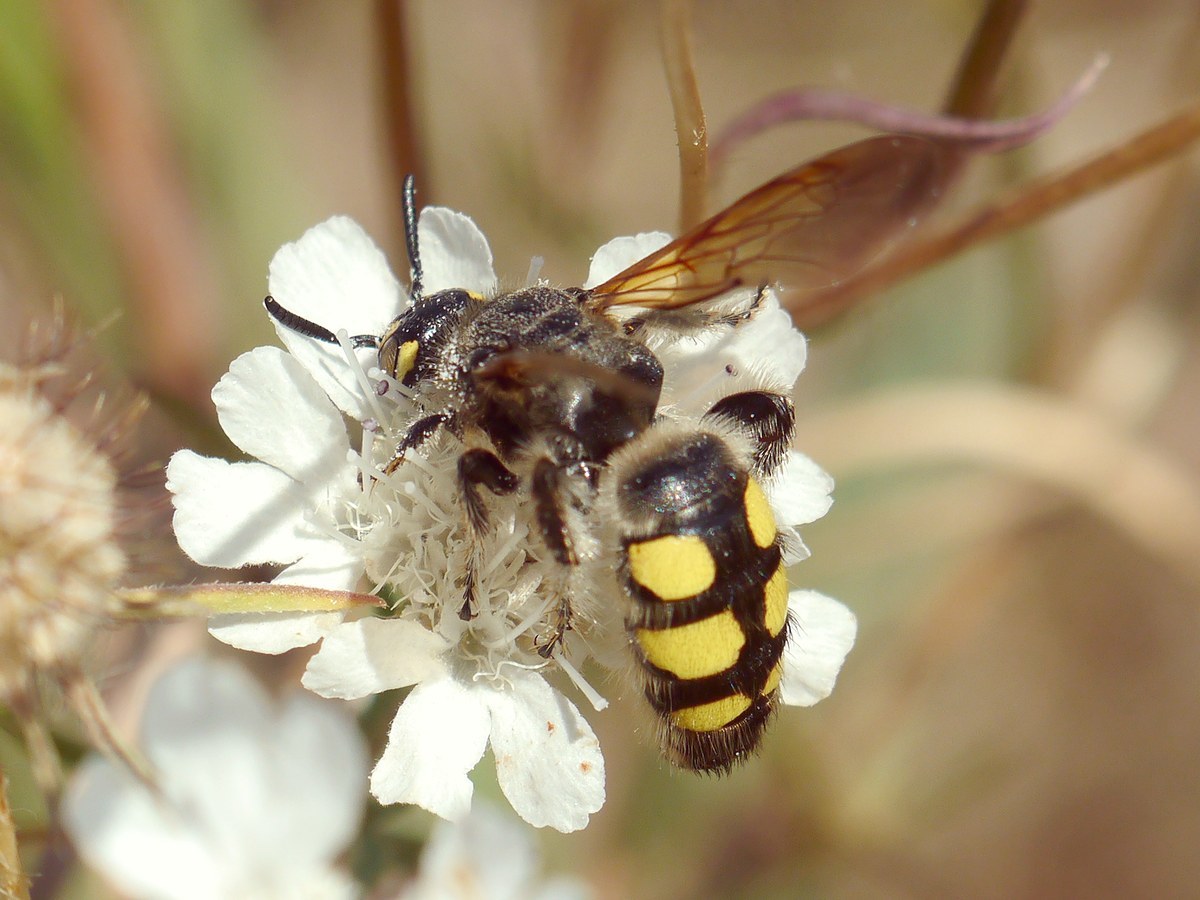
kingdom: Animalia
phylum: Arthropoda
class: Insecta
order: Hymenoptera
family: Vespidae
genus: Vespa
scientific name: Vespa sexmaculata
